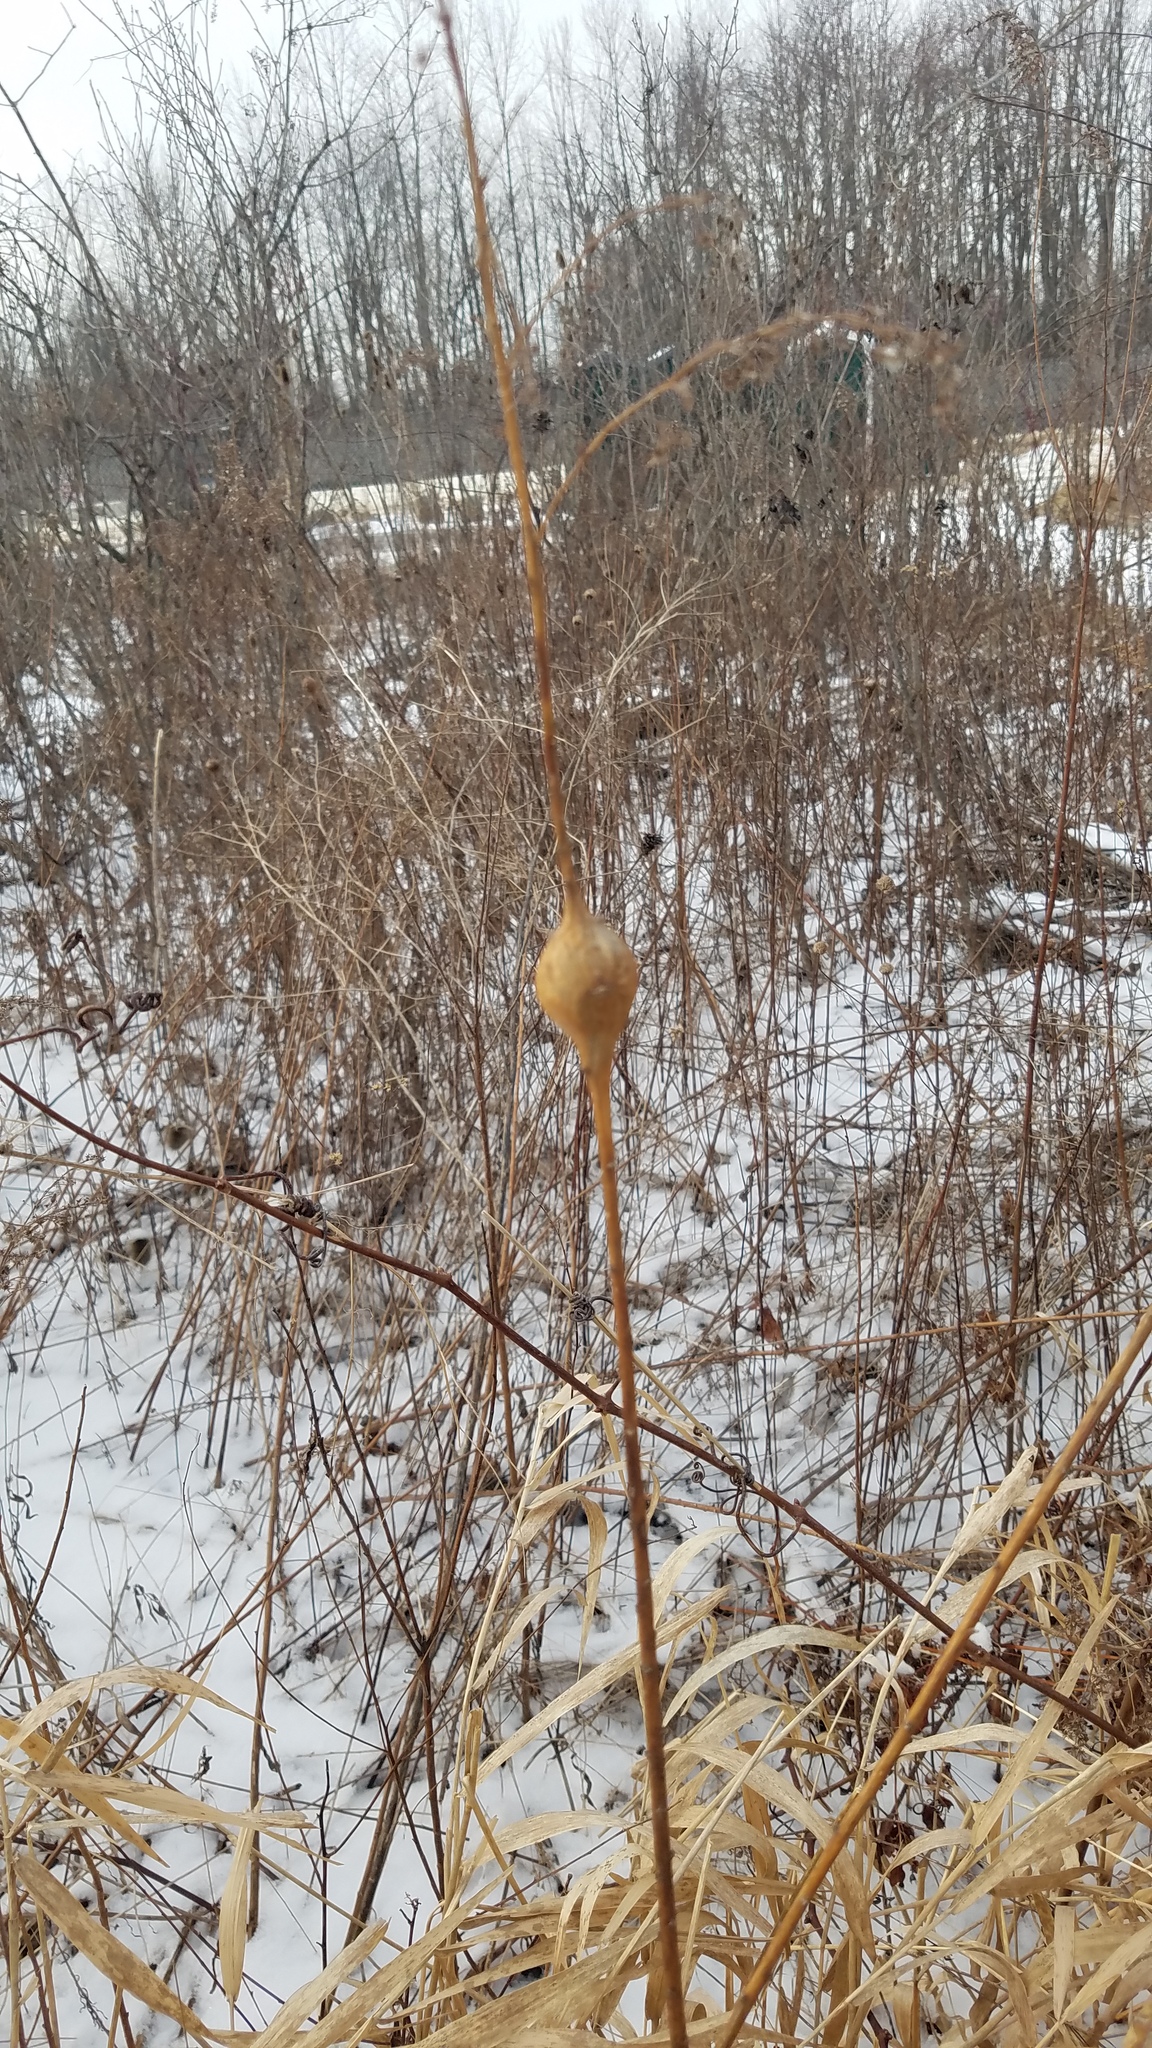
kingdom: Animalia
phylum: Arthropoda
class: Insecta
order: Diptera
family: Tephritidae
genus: Eurosta
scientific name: Eurosta solidaginis
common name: Goldenrod gall fly
